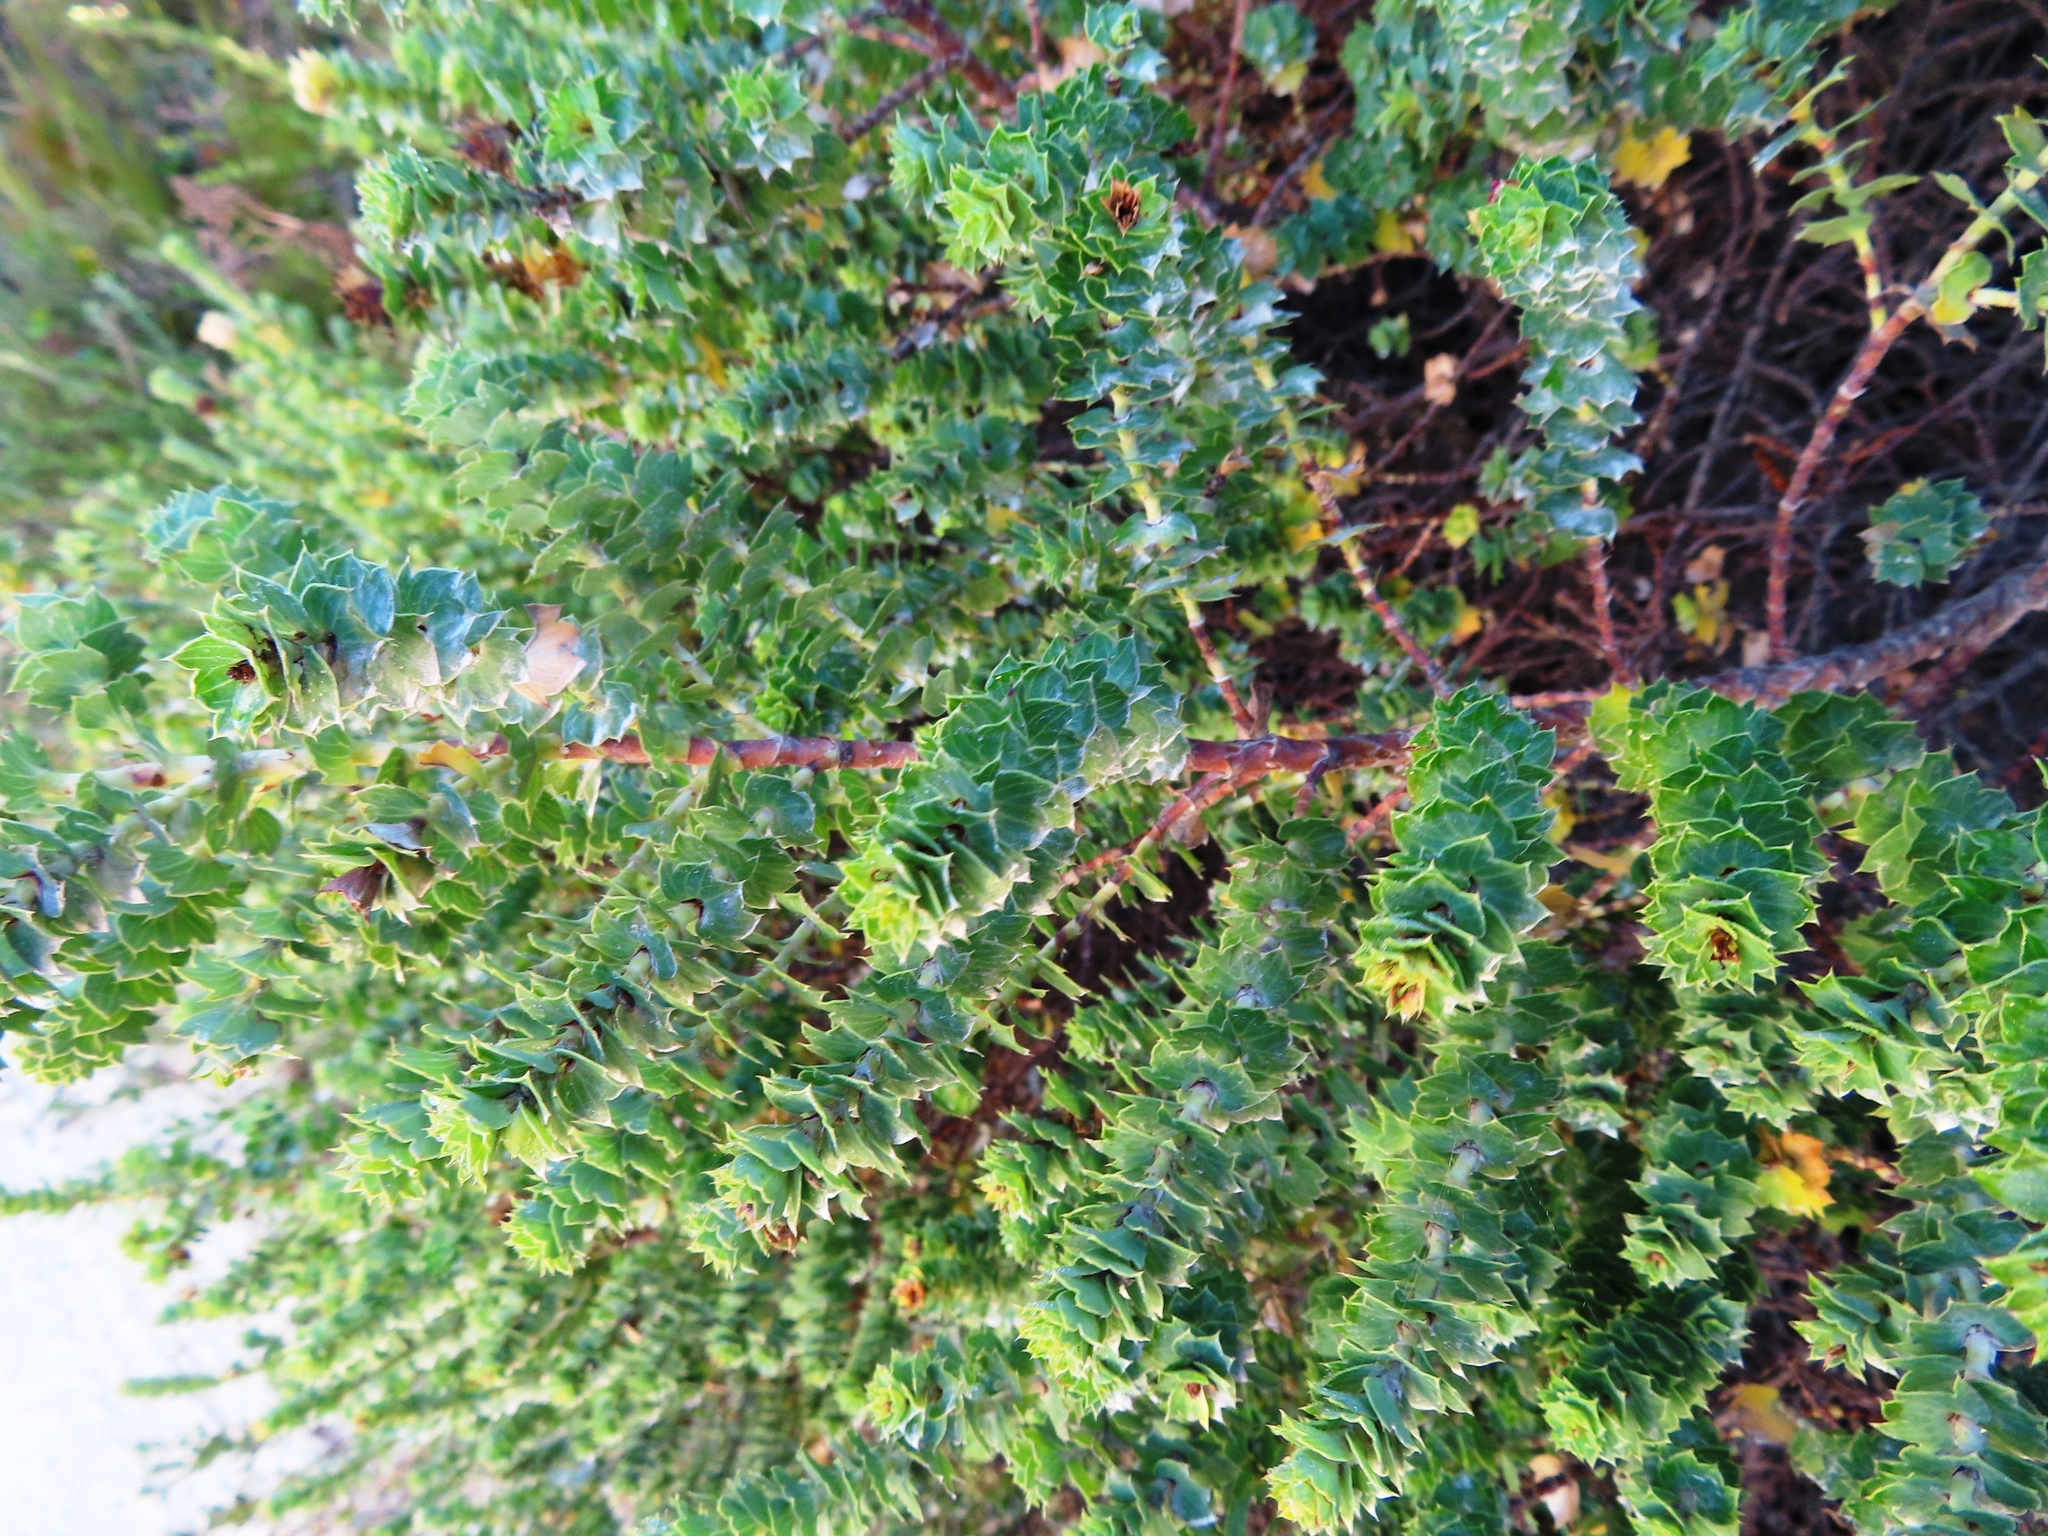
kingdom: Plantae
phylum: Tracheophyta
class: Magnoliopsida
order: Rosales
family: Rosaceae
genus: Cliffortia
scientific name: Cliffortia schlechteri
